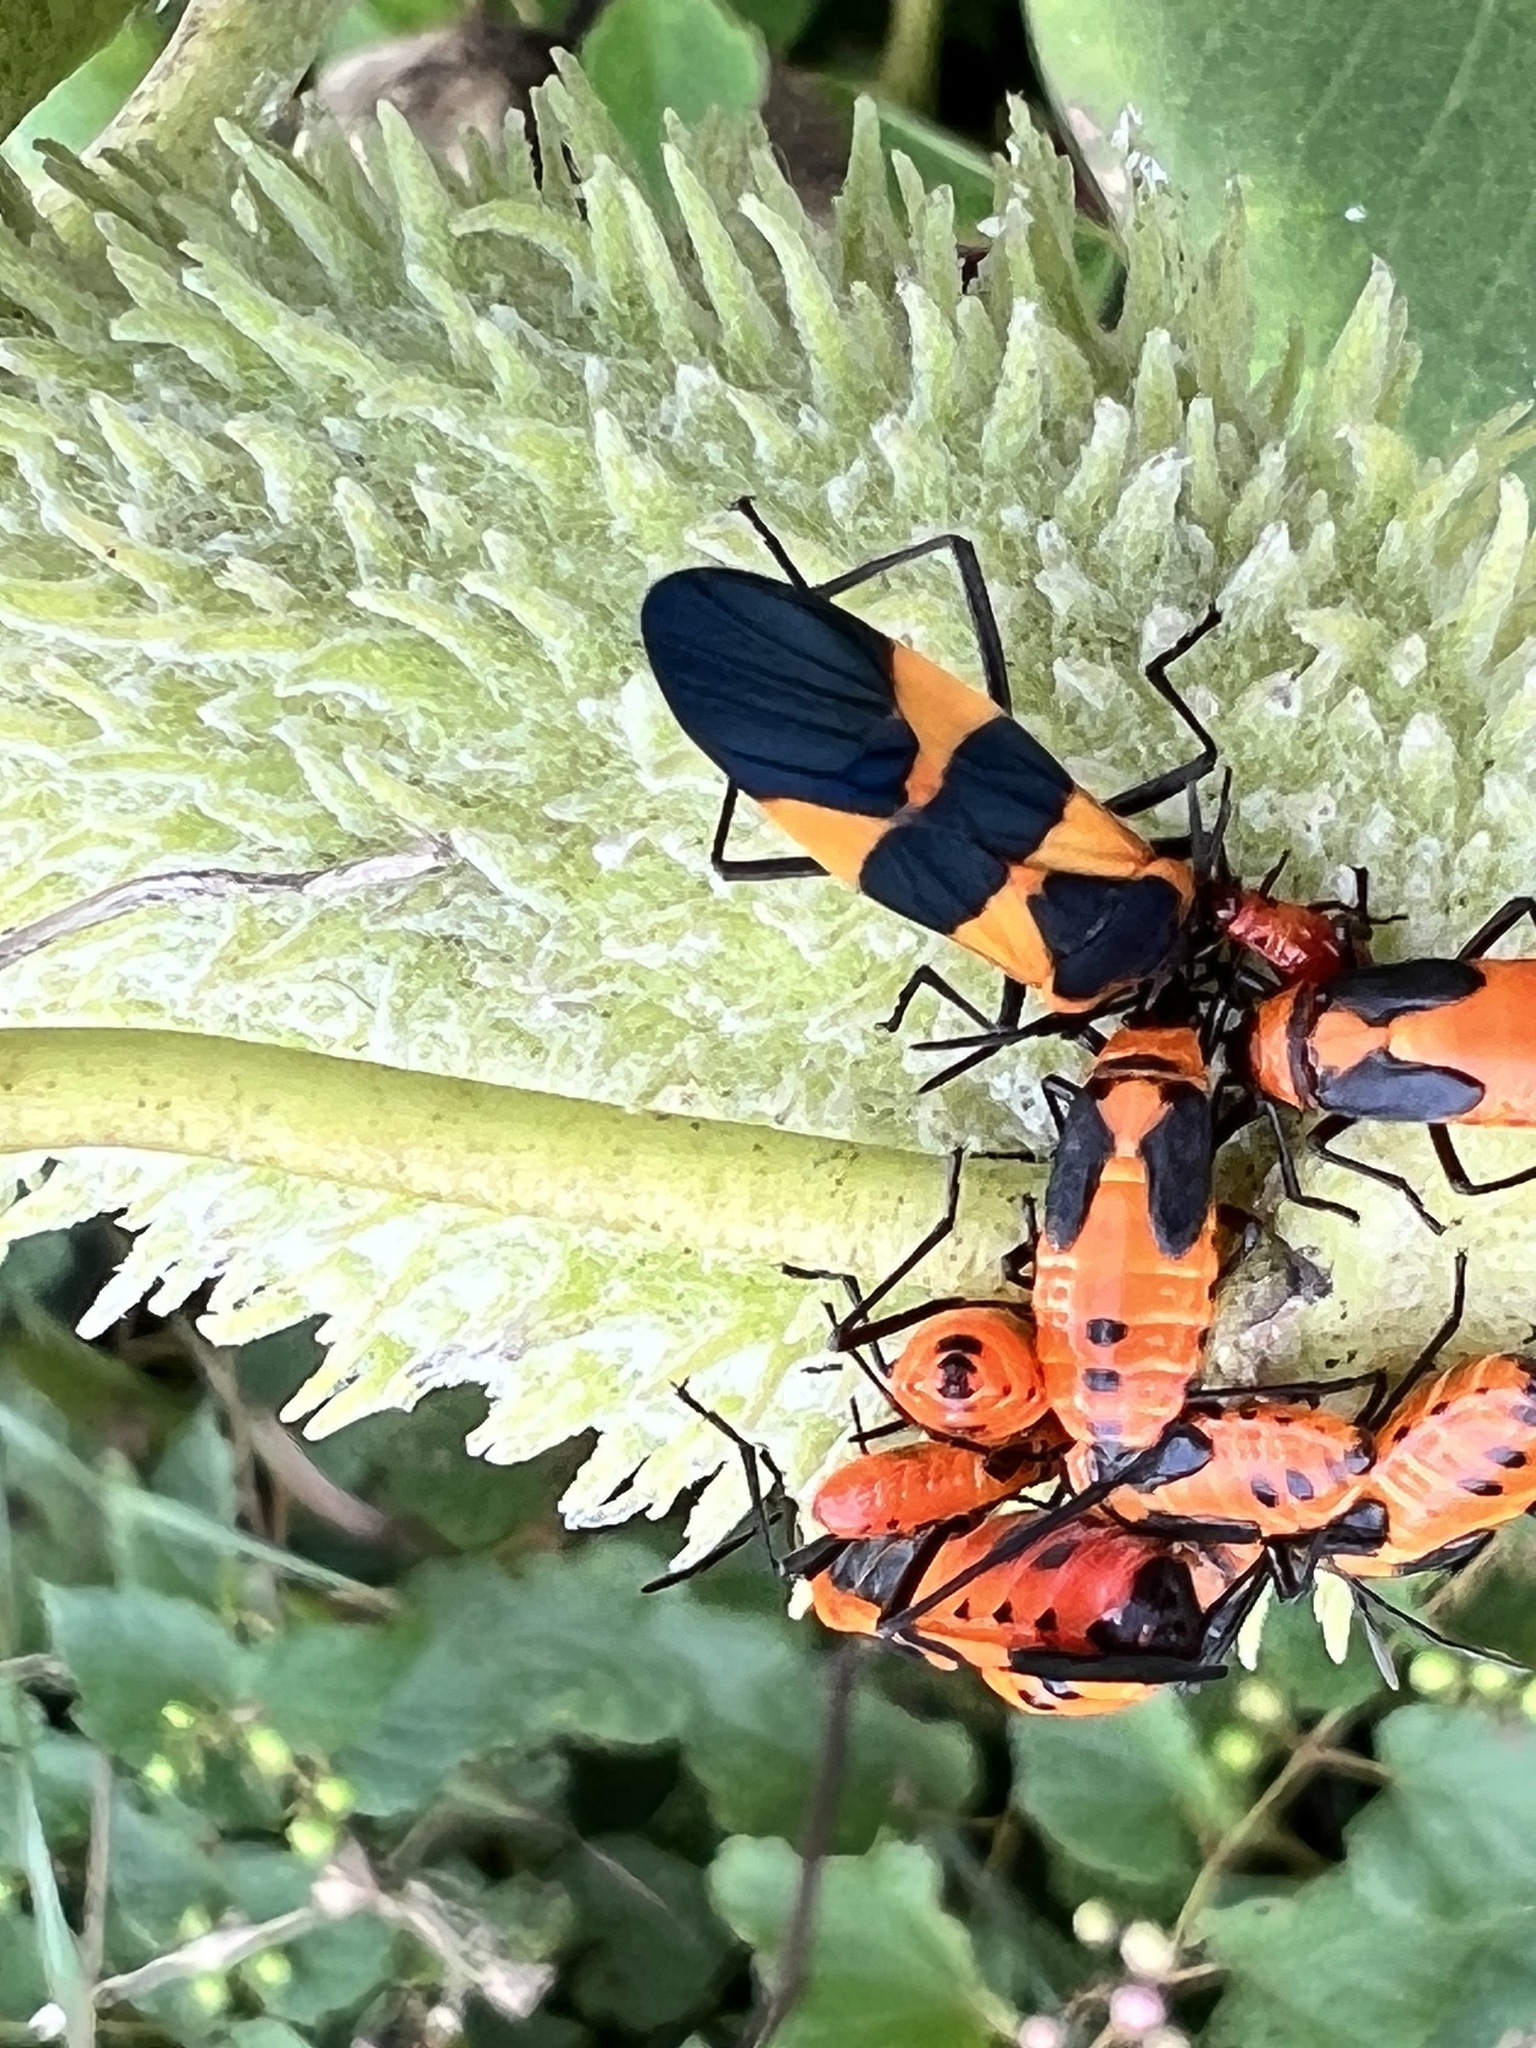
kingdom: Animalia
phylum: Arthropoda
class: Insecta
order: Hemiptera
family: Lygaeidae
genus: Oncopeltus
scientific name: Oncopeltus fasciatus
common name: Large milkweed bug
